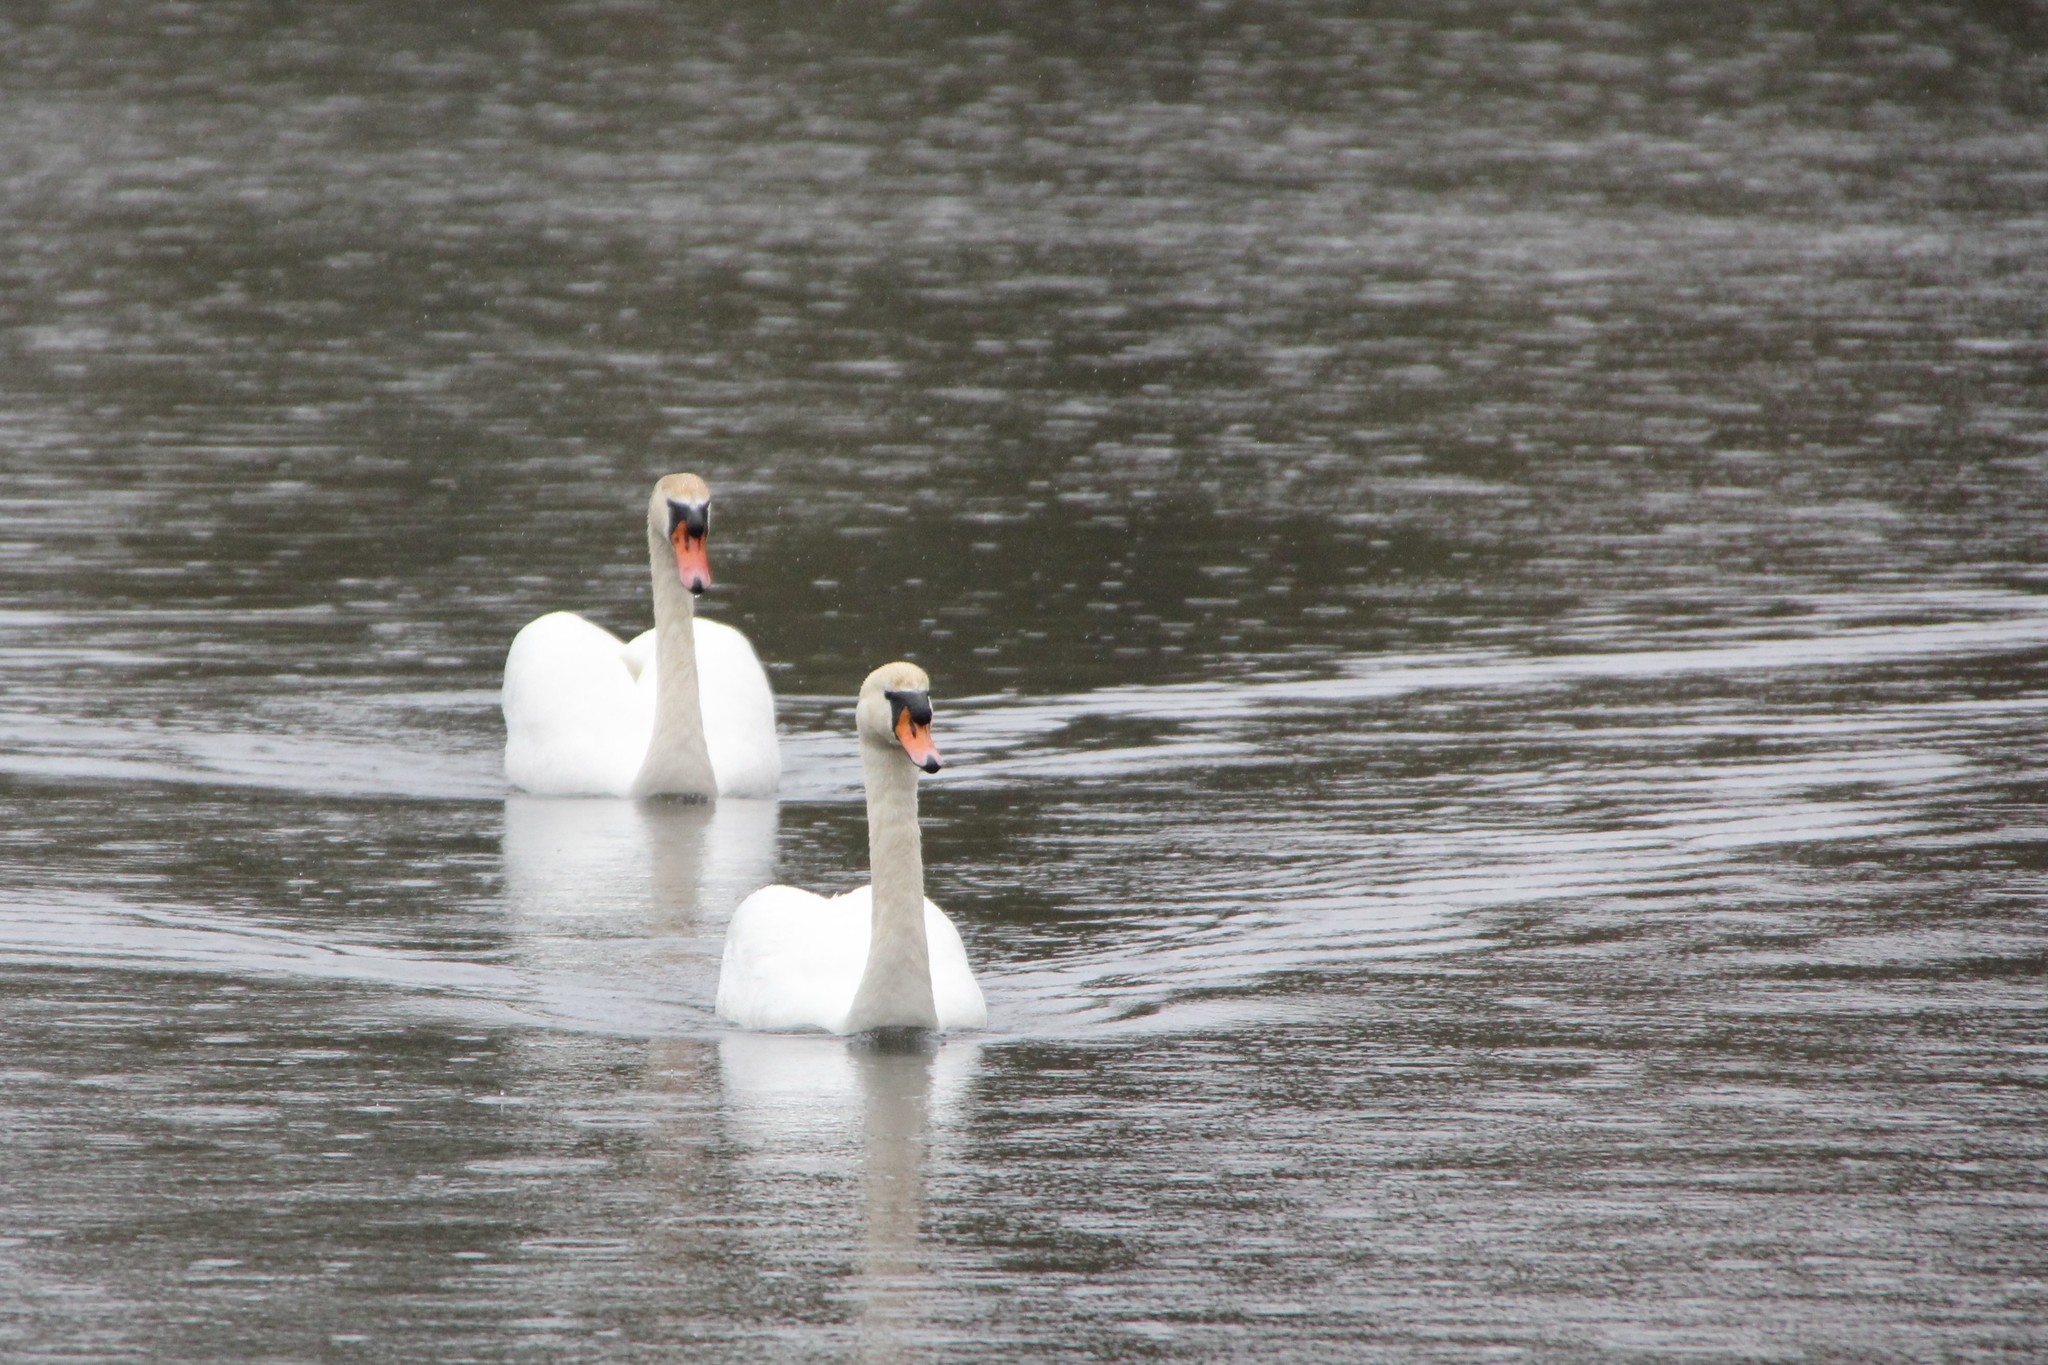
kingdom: Animalia
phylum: Chordata
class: Aves
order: Anseriformes
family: Anatidae
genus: Cygnus
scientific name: Cygnus olor
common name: Mute swan
